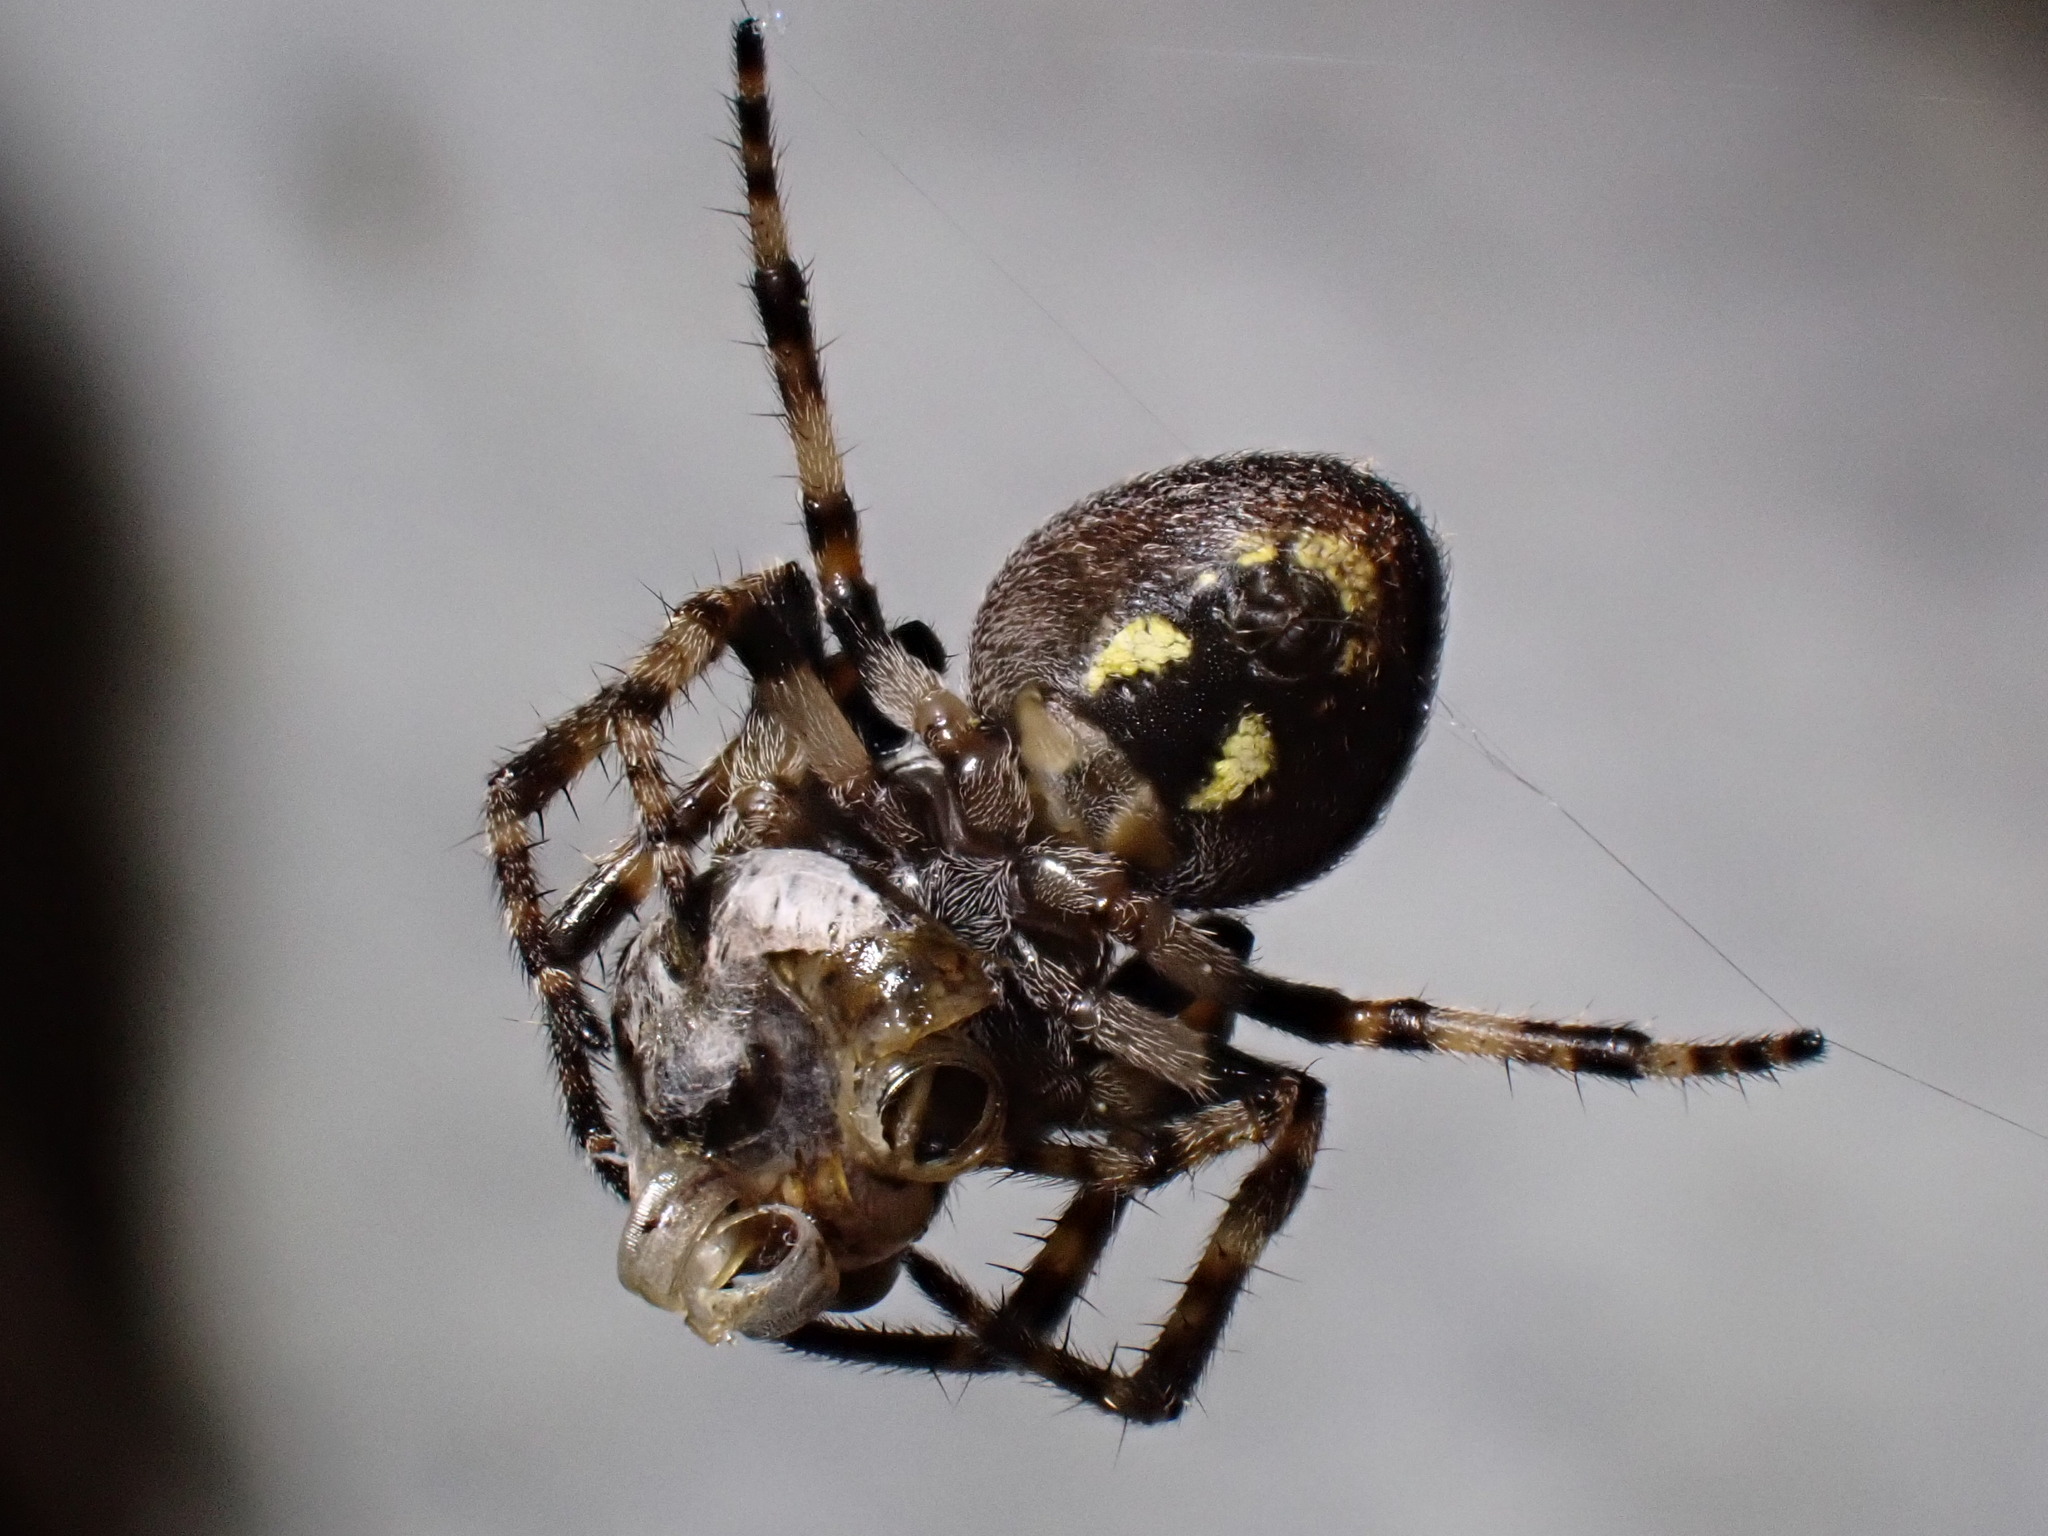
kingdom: Animalia
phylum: Arthropoda
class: Arachnida
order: Araneae
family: Araneidae
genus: Nuctenea
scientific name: Nuctenea umbratica
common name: Toad spider
